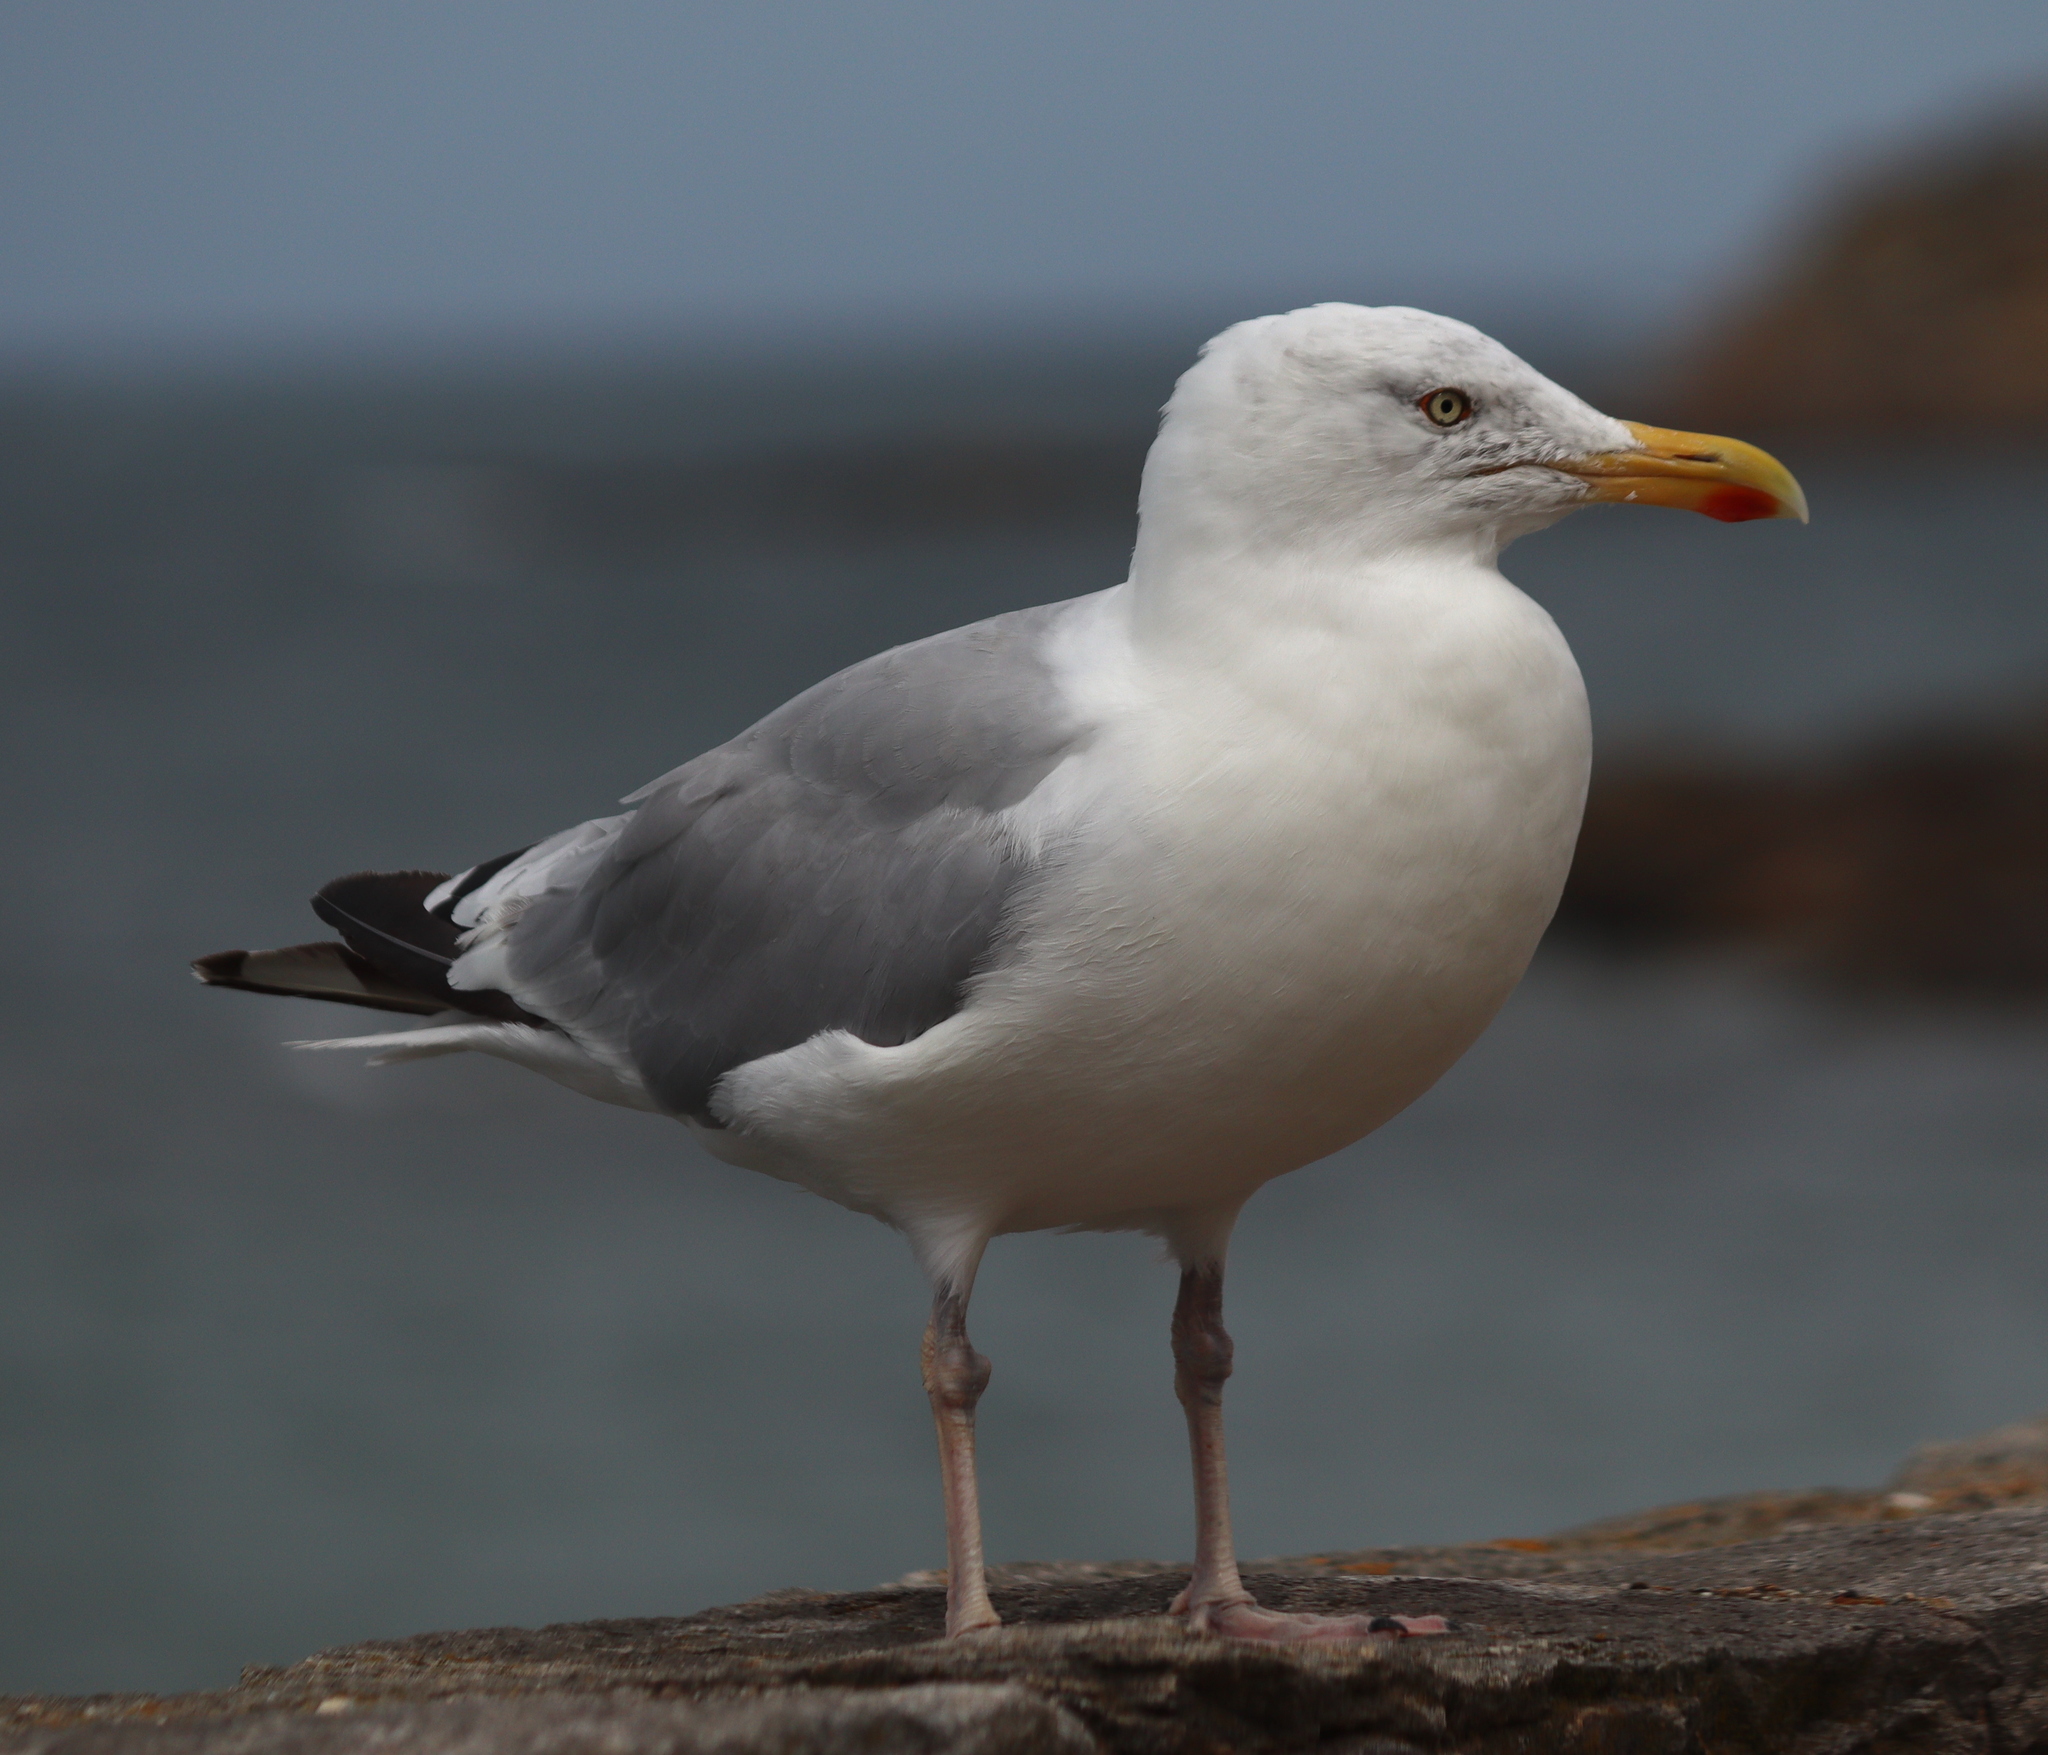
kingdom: Animalia
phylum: Chordata
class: Aves
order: Charadriiformes
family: Laridae
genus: Larus
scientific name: Larus argentatus
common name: Herring gull
